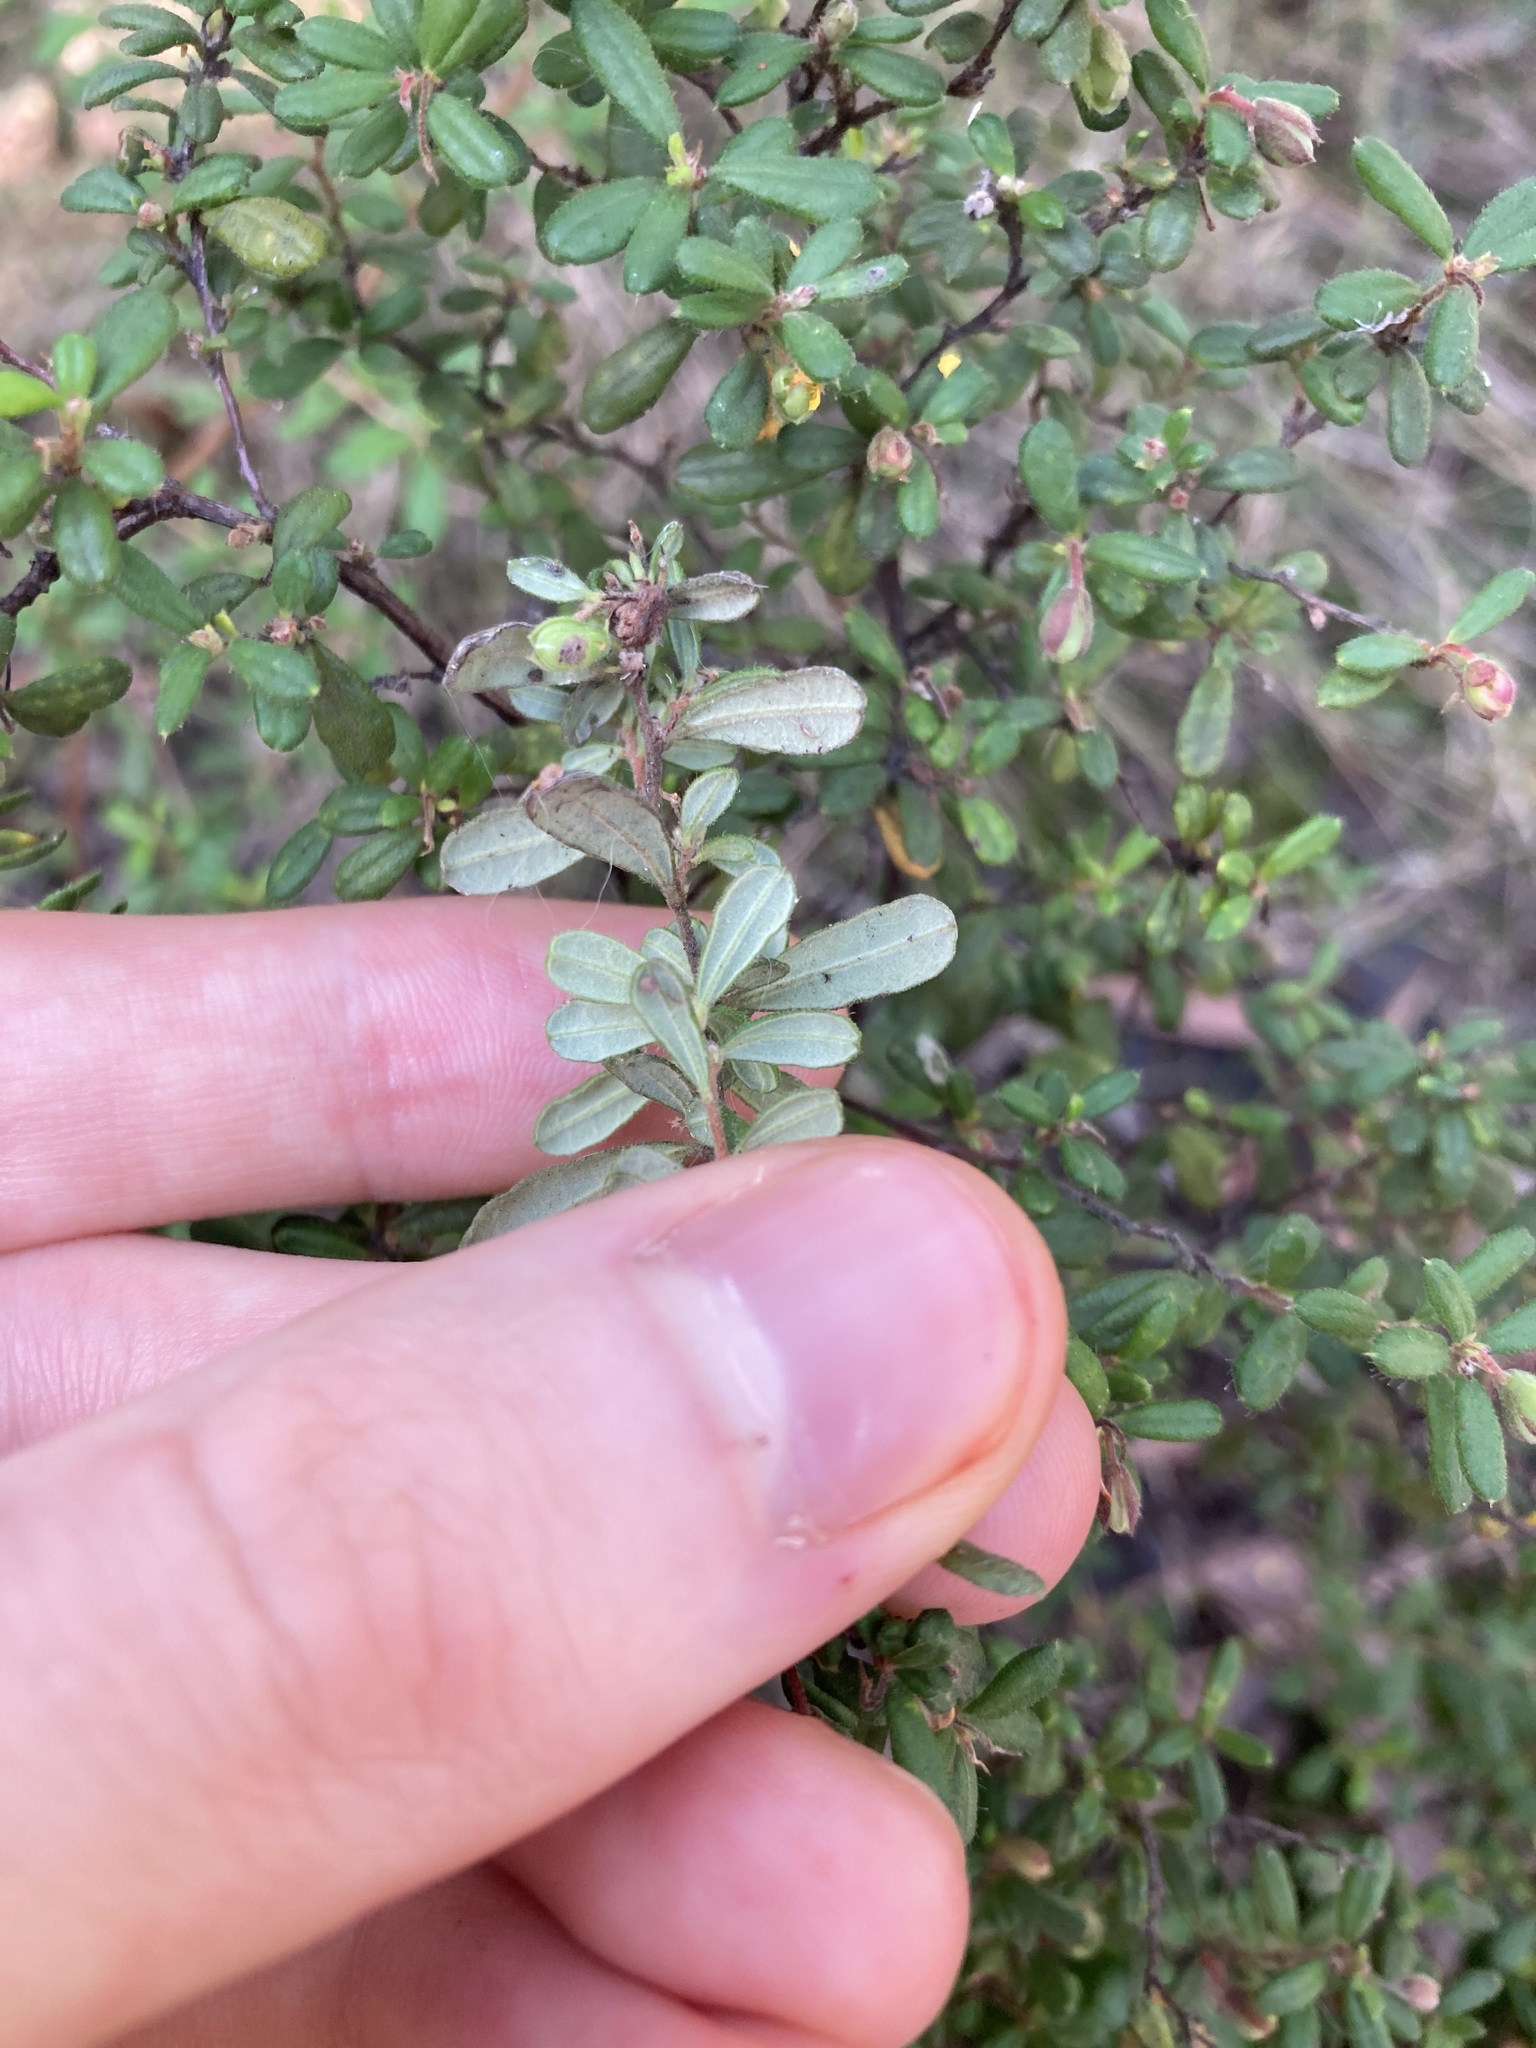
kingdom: Plantae
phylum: Tracheophyta
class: Magnoliopsida
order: Dilleniales
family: Dilleniaceae
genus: Hibbertia
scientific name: Hibbertia aspera
